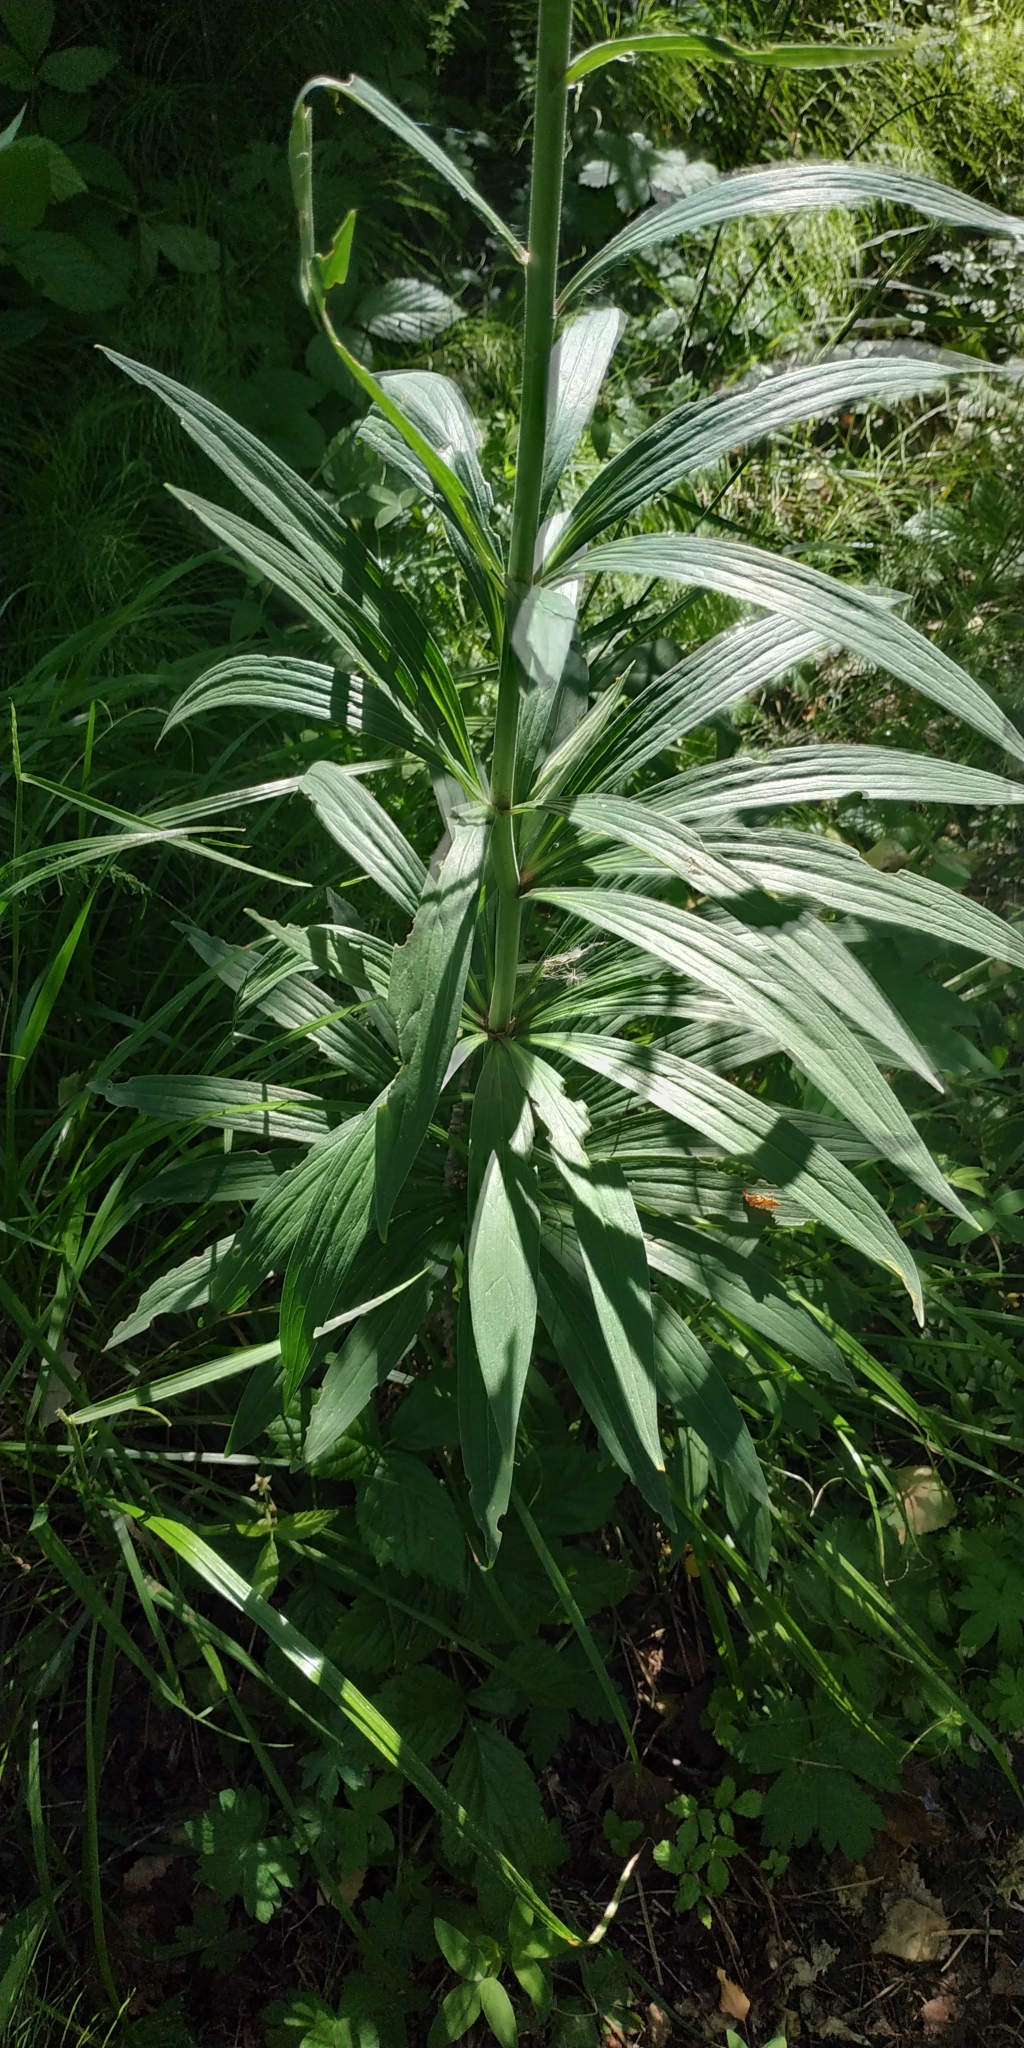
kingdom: Plantae
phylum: Tracheophyta
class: Liliopsida
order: Liliales
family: Liliaceae
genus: Lilium
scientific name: Lilium martagon
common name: Martagon lily
